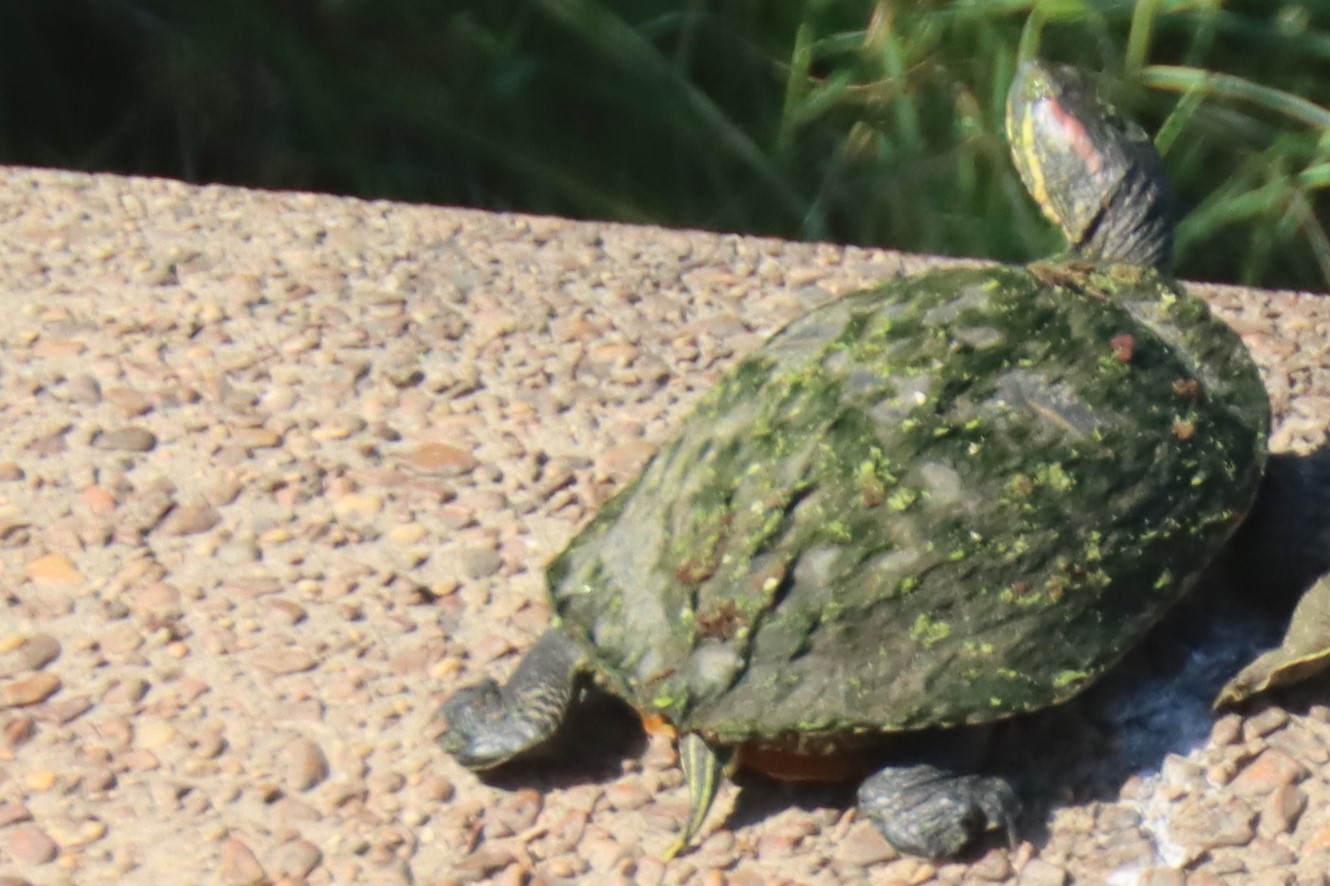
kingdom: Animalia
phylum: Chordata
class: Testudines
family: Emydidae
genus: Trachemys
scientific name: Trachemys scripta
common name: Slider
